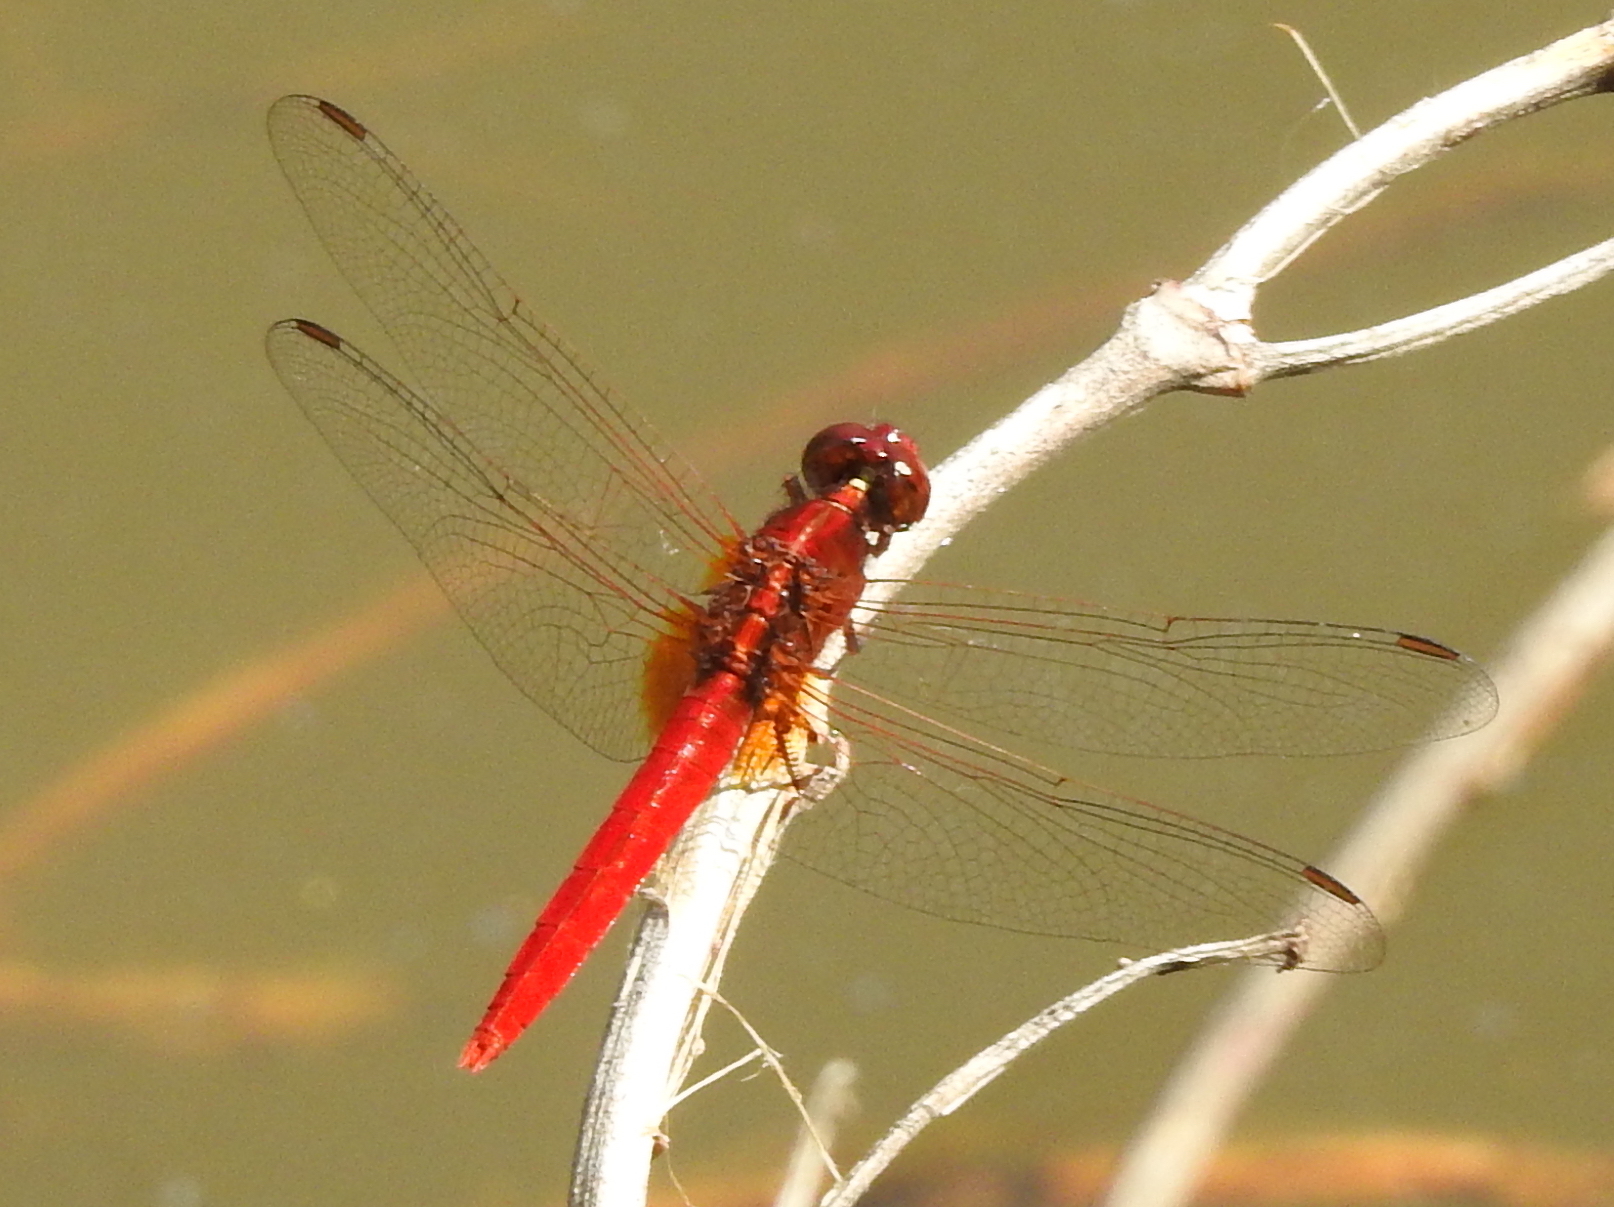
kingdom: Animalia
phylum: Arthropoda
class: Insecta
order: Odonata
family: Libellulidae
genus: Rhodothemis
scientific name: Rhodothemis rufa
